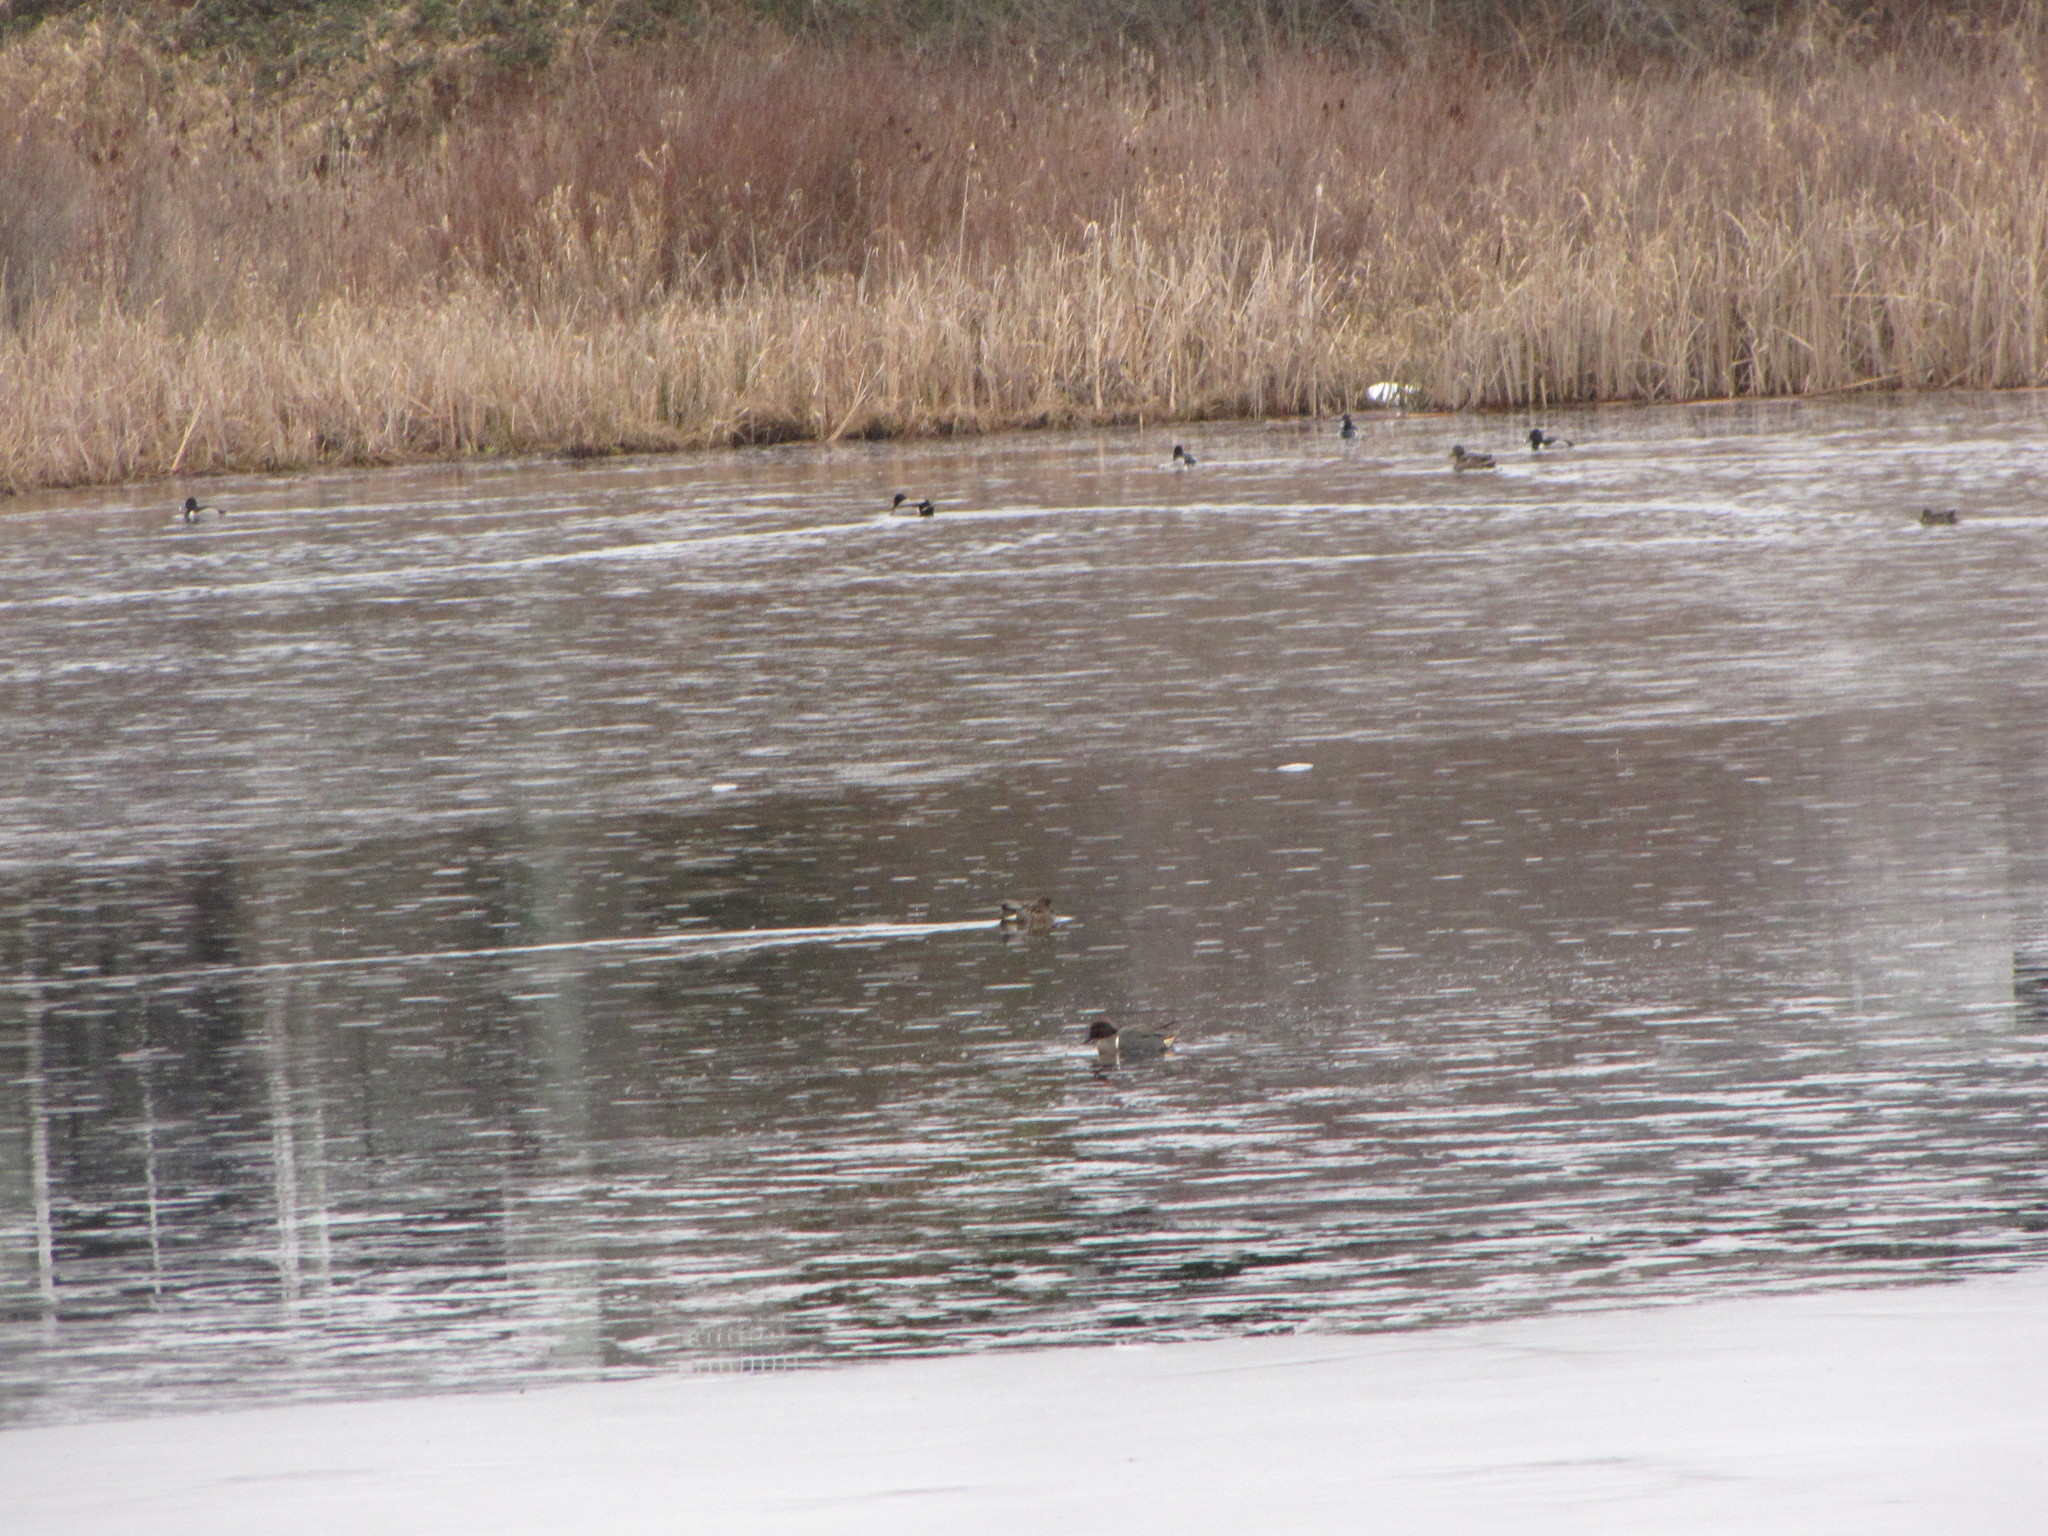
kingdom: Animalia
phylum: Chordata
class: Aves
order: Anseriformes
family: Anatidae
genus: Aythya
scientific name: Aythya collaris
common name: Ring-necked duck
